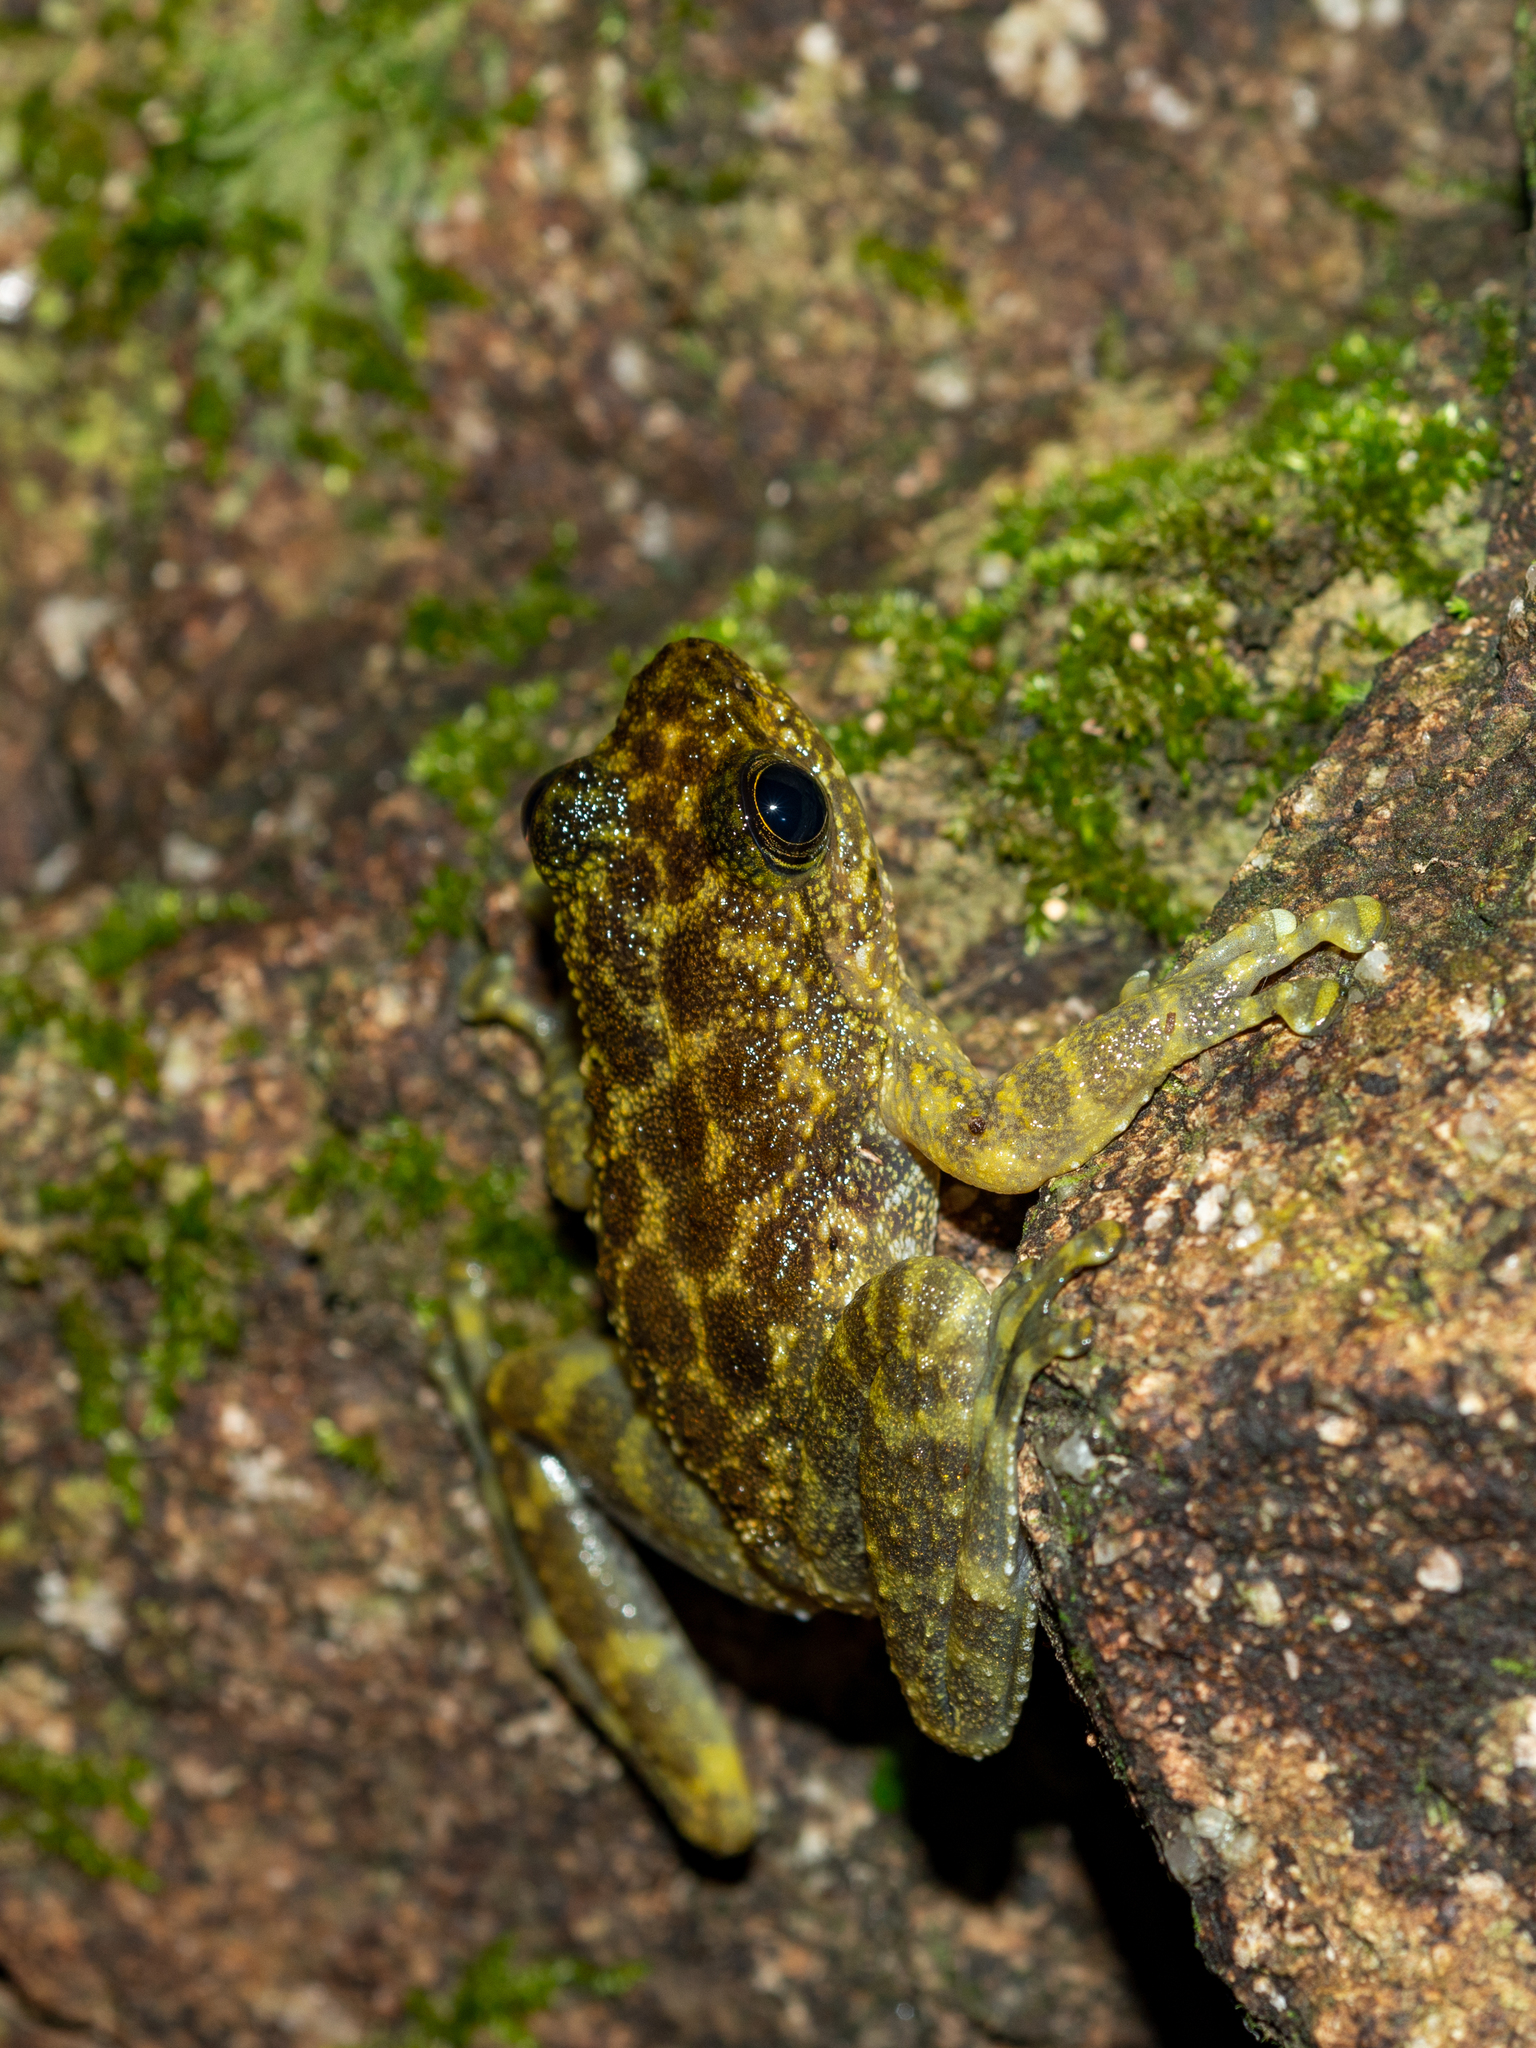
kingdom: Animalia
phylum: Chordata
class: Amphibia
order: Anura
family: Ranidae
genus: Amolops
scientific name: Amolops hongkongensis
